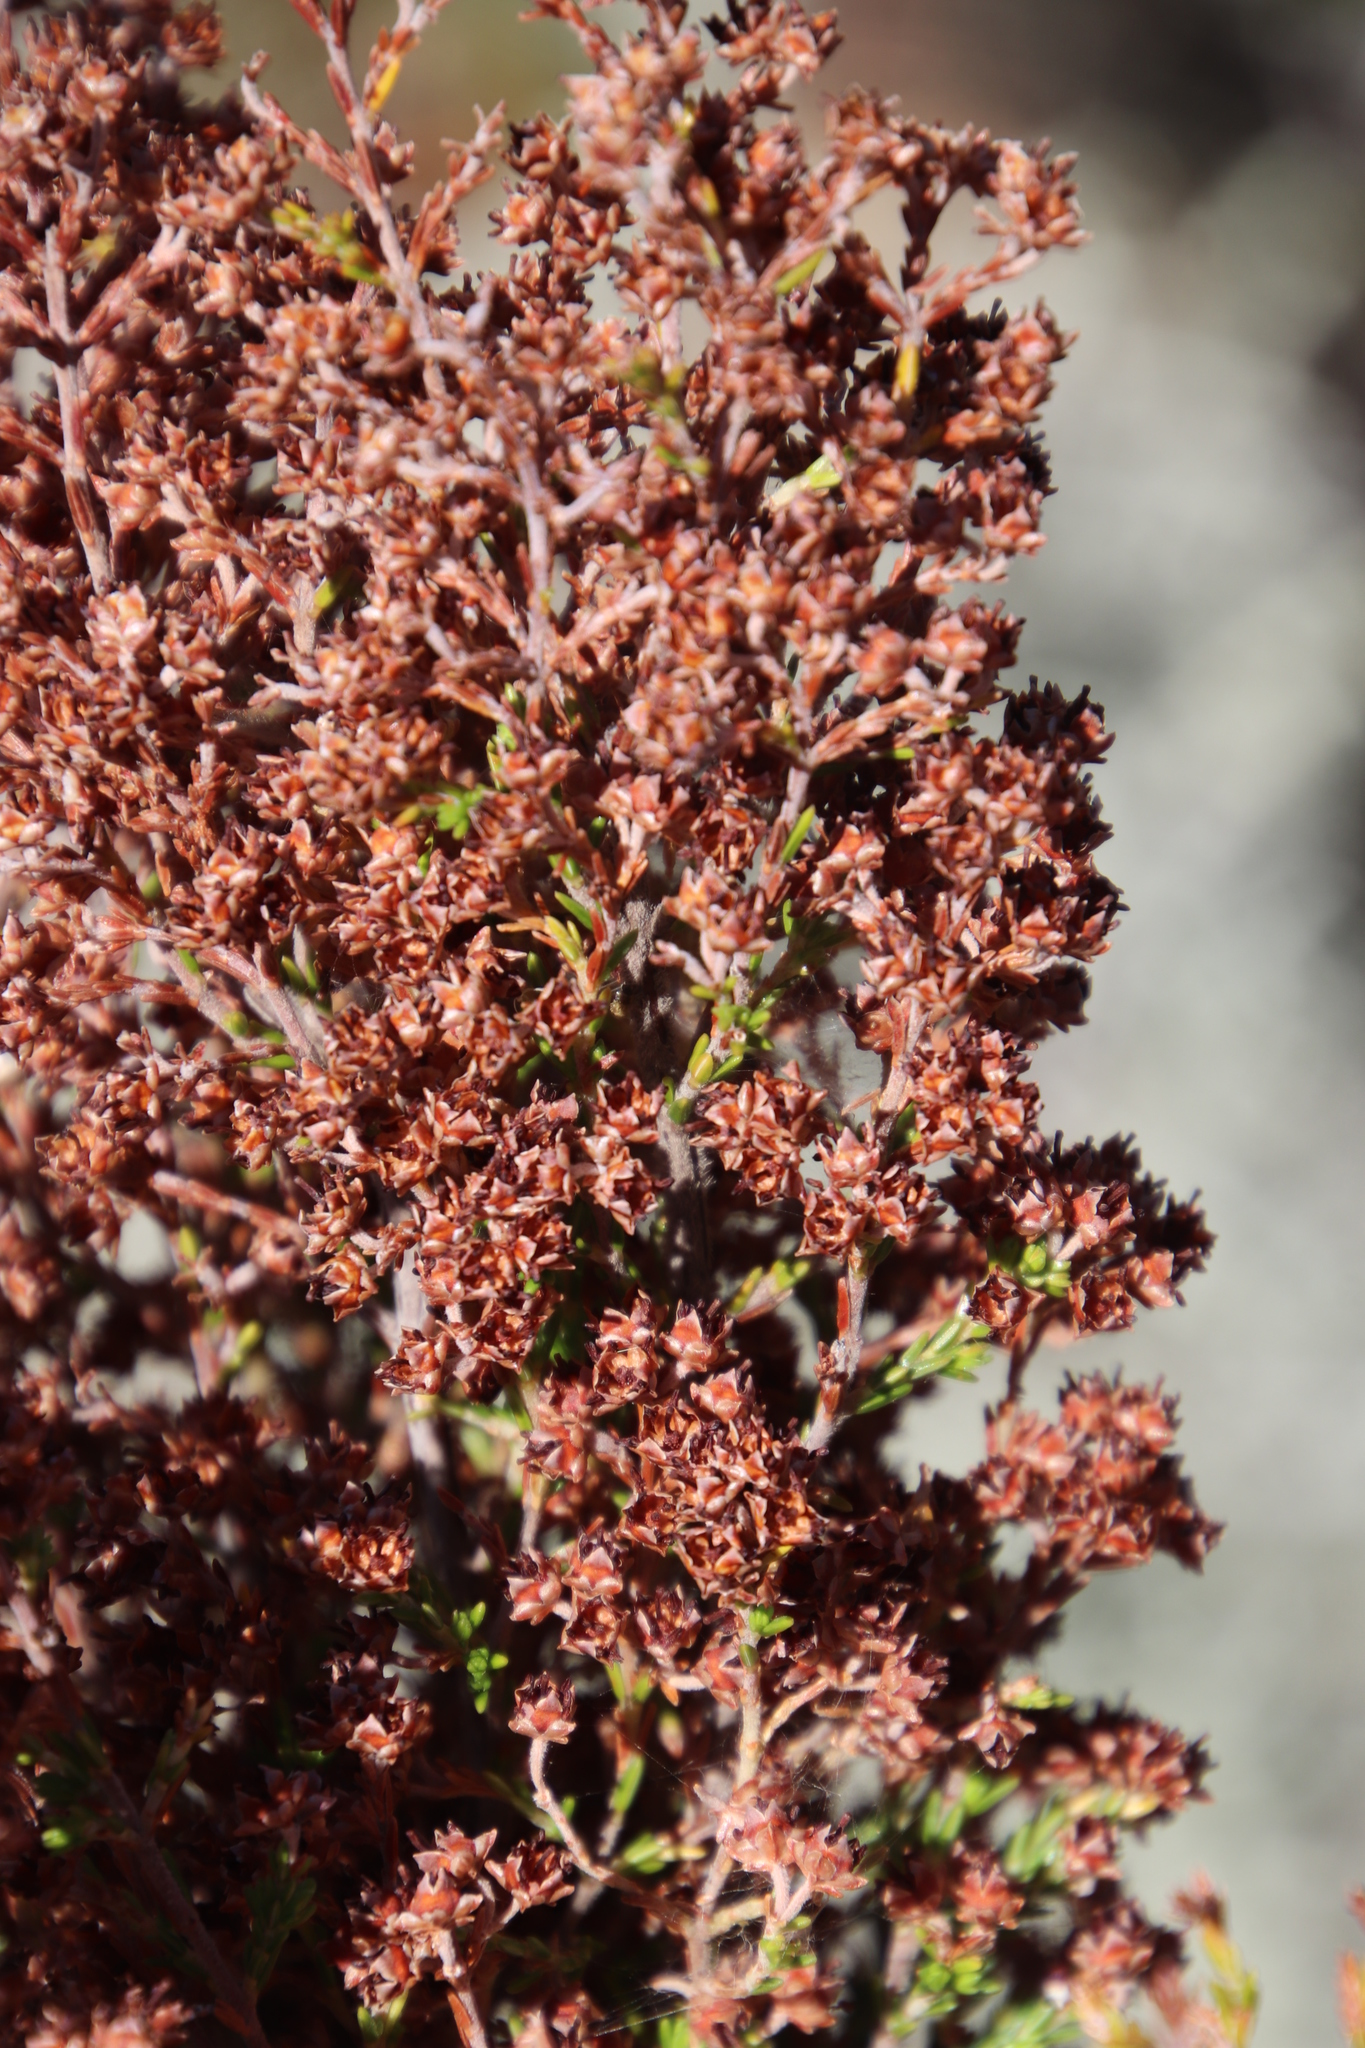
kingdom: Plantae
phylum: Tracheophyta
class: Magnoliopsida
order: Ericales
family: Ericaceae
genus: Erica
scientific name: Erica lucida
